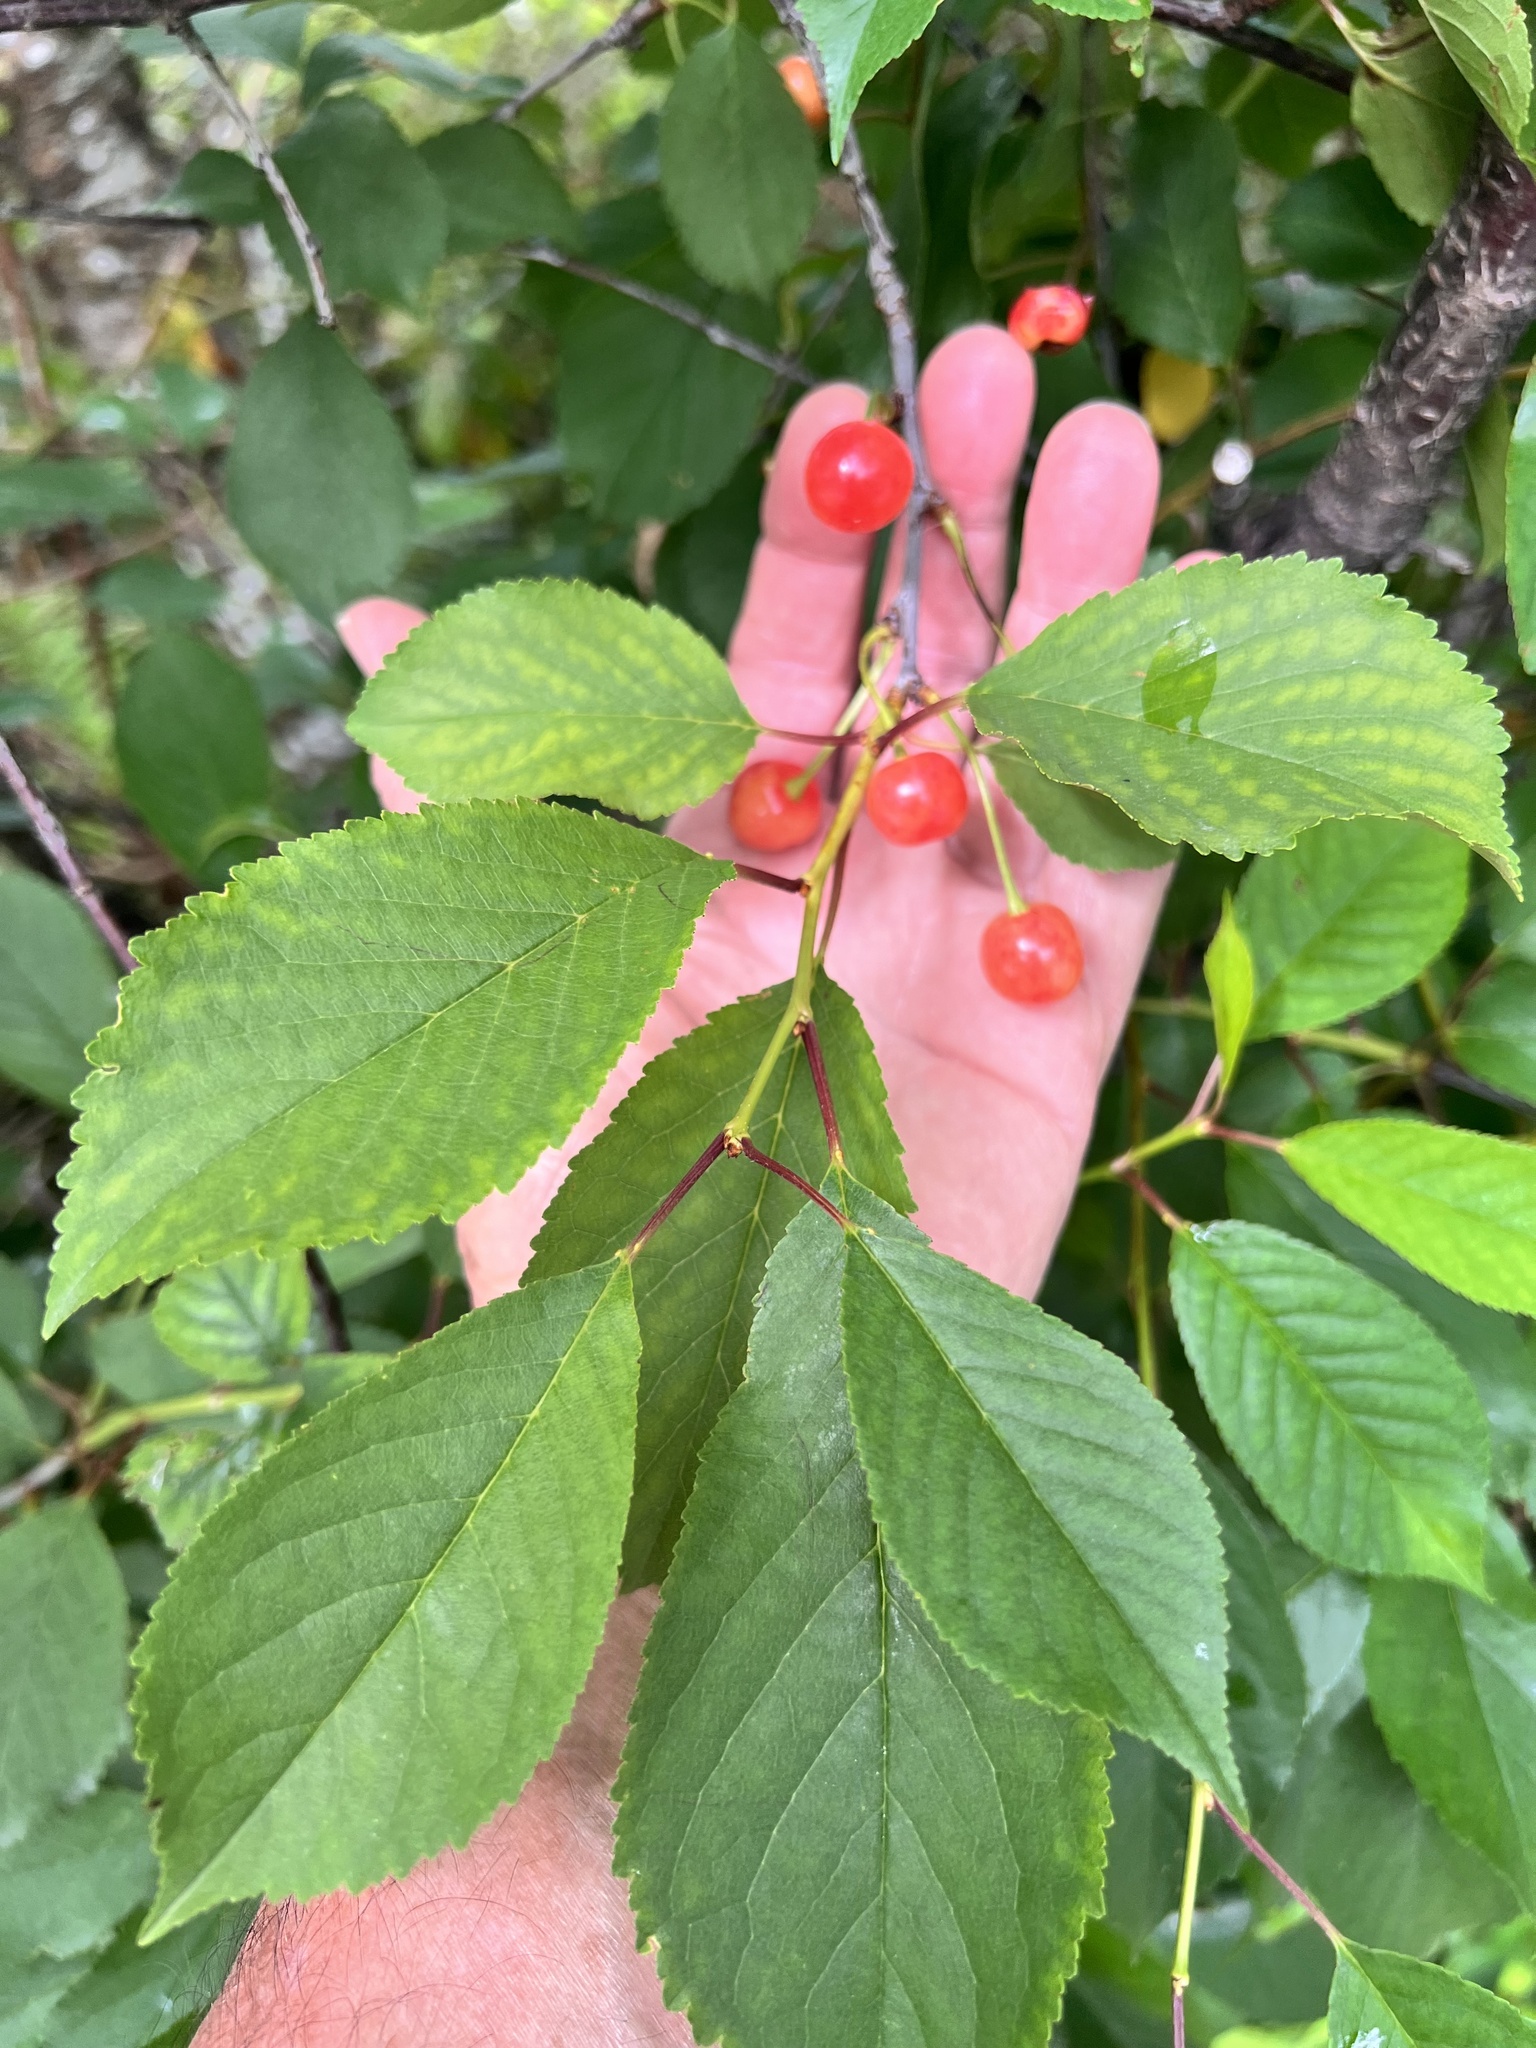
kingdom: Plantae
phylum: Tracheophyta
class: Magnoliopsida
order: Rosales
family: Rosaceae
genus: Prunus
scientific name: Prunus cerasus
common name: Morello cherry
